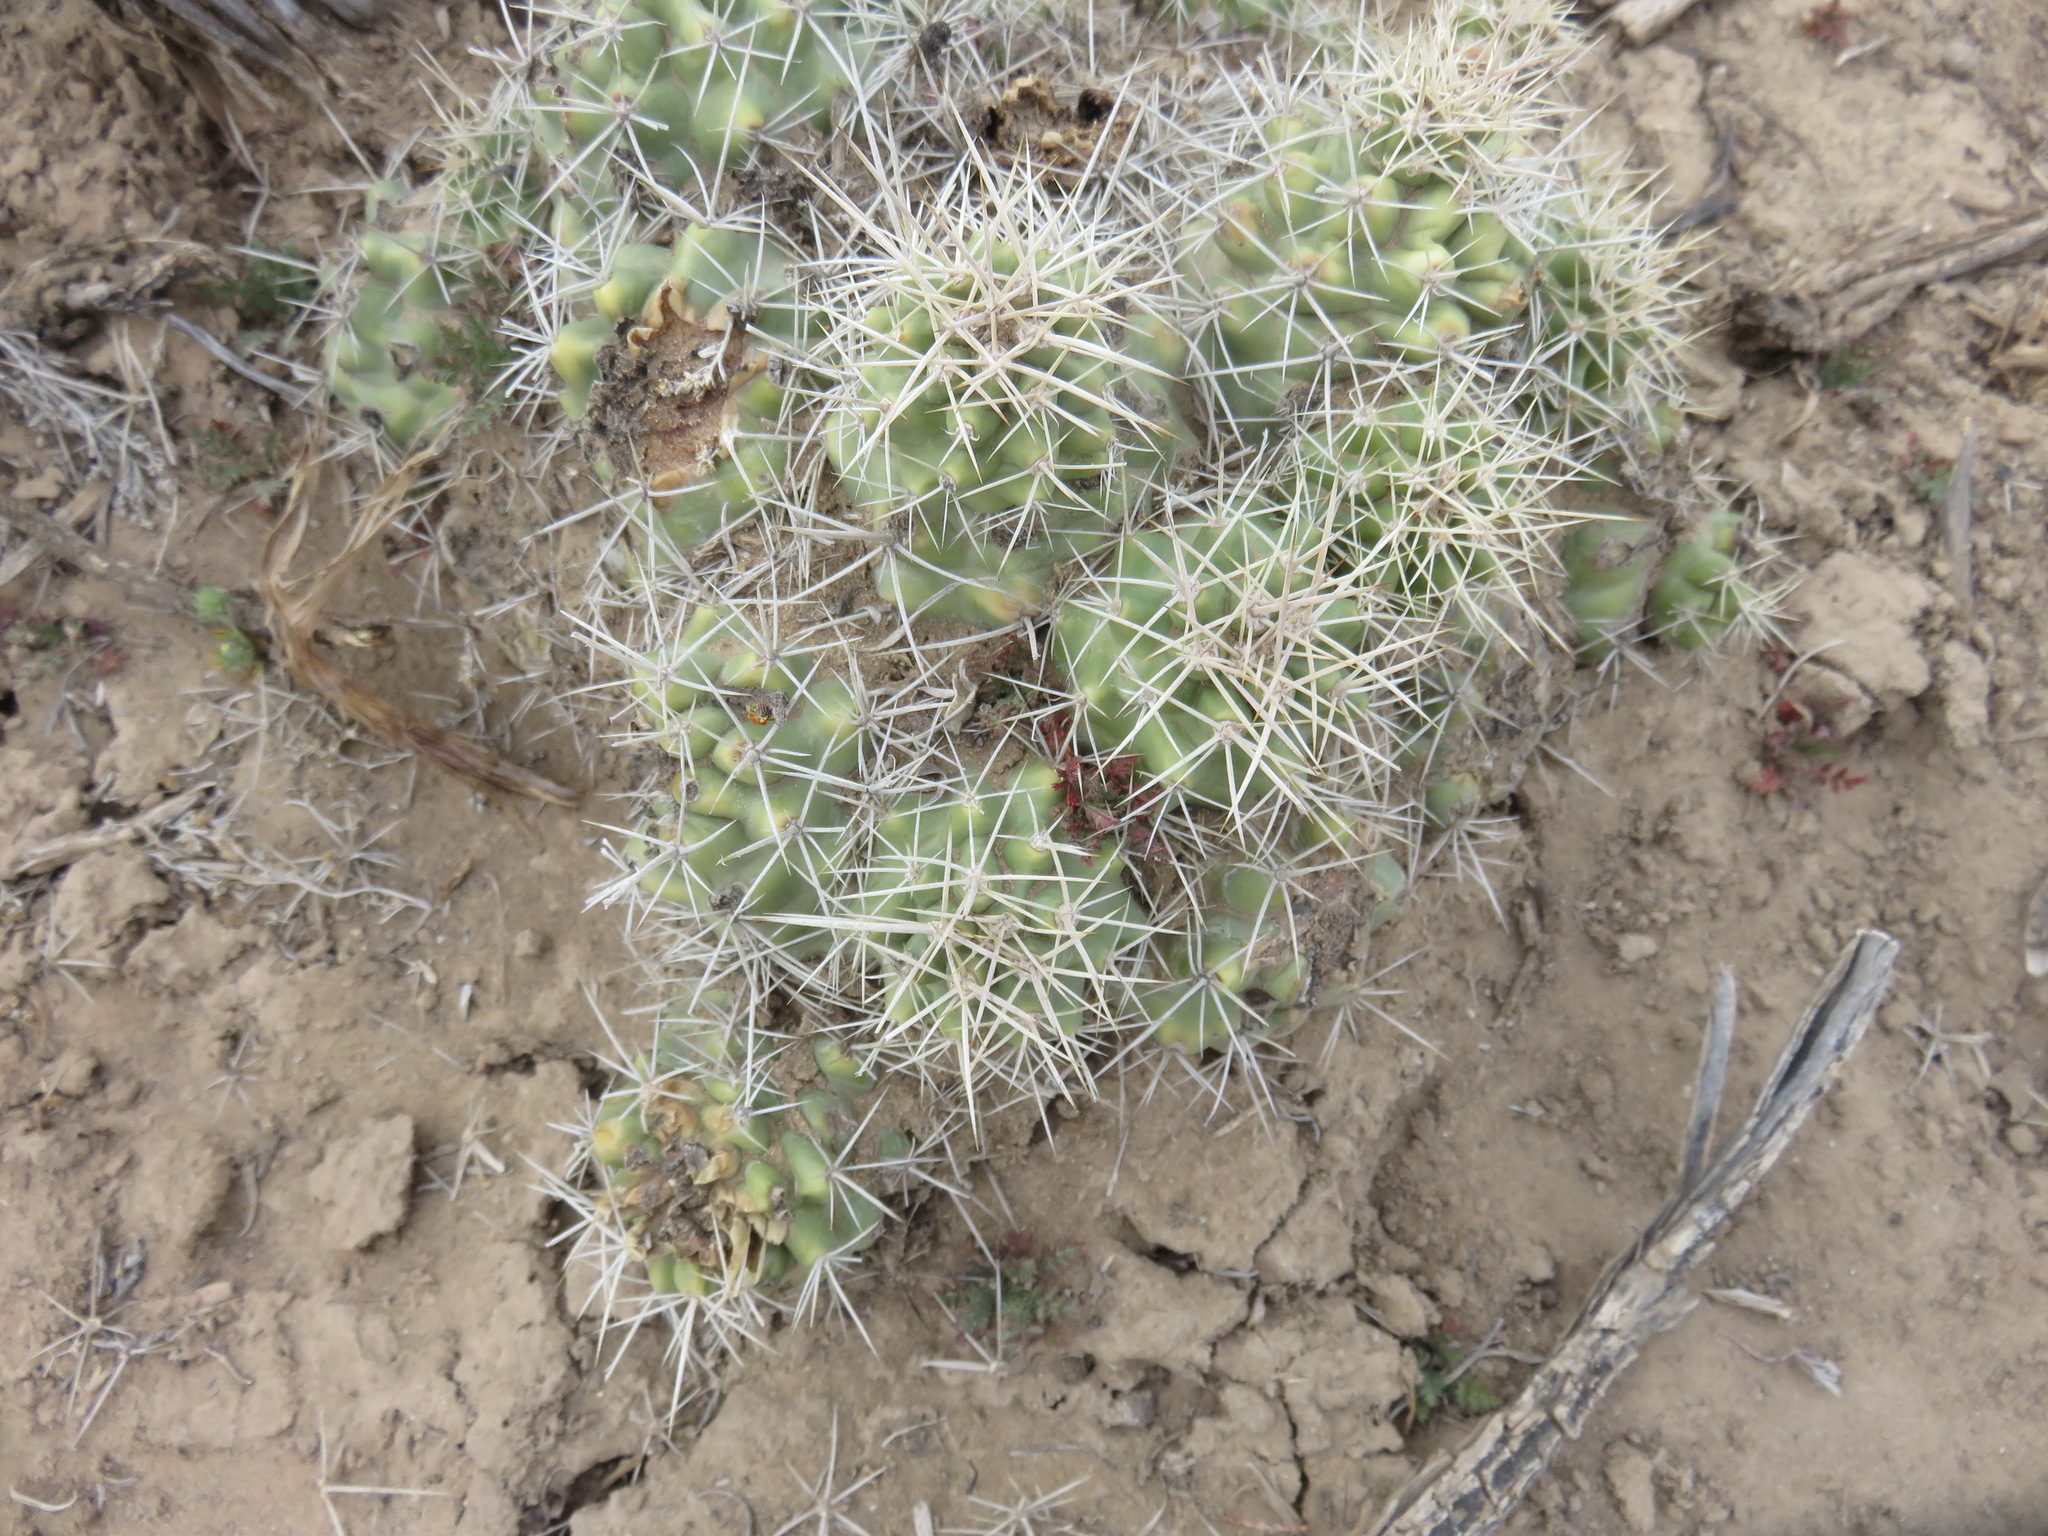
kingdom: Plantae
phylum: Tracheophyta
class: Magnoliopsida
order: Caryophyllales
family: Cactaceae
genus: Echinocereus
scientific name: Echinocereus triglochidiatus
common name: Claretcup hedgehog
